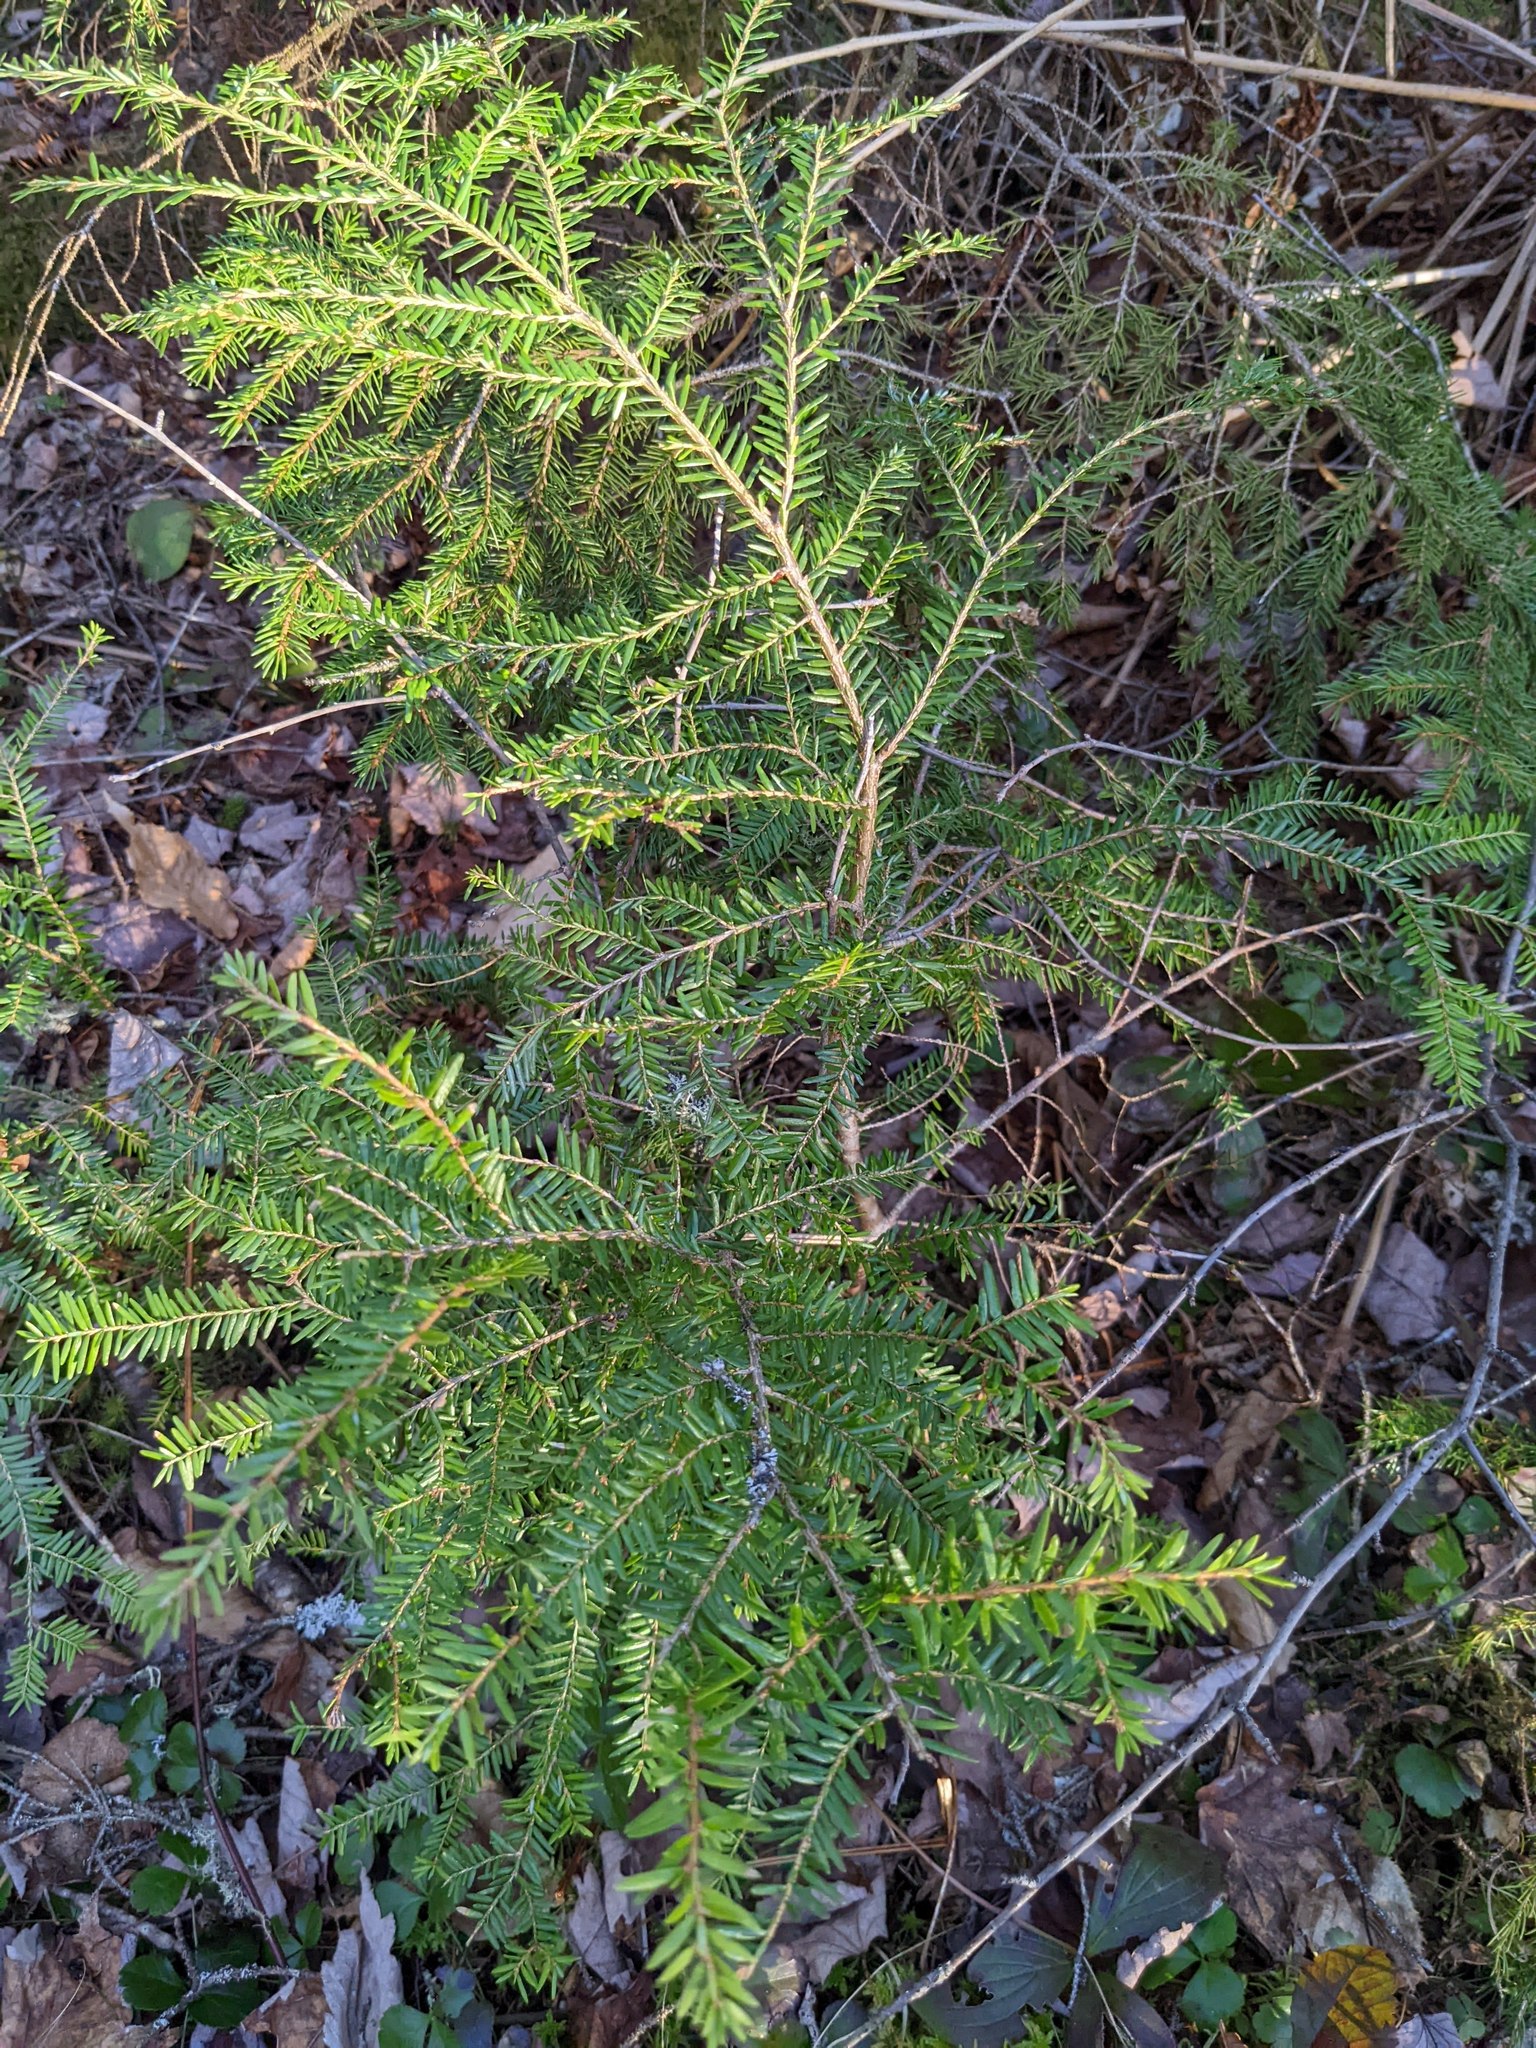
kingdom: Plantae
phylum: Tracheophyta
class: Pinopsida
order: Pinales
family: Pinaceae
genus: Tsuga
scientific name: Tsuga canadensis
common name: Eastern hemlock
